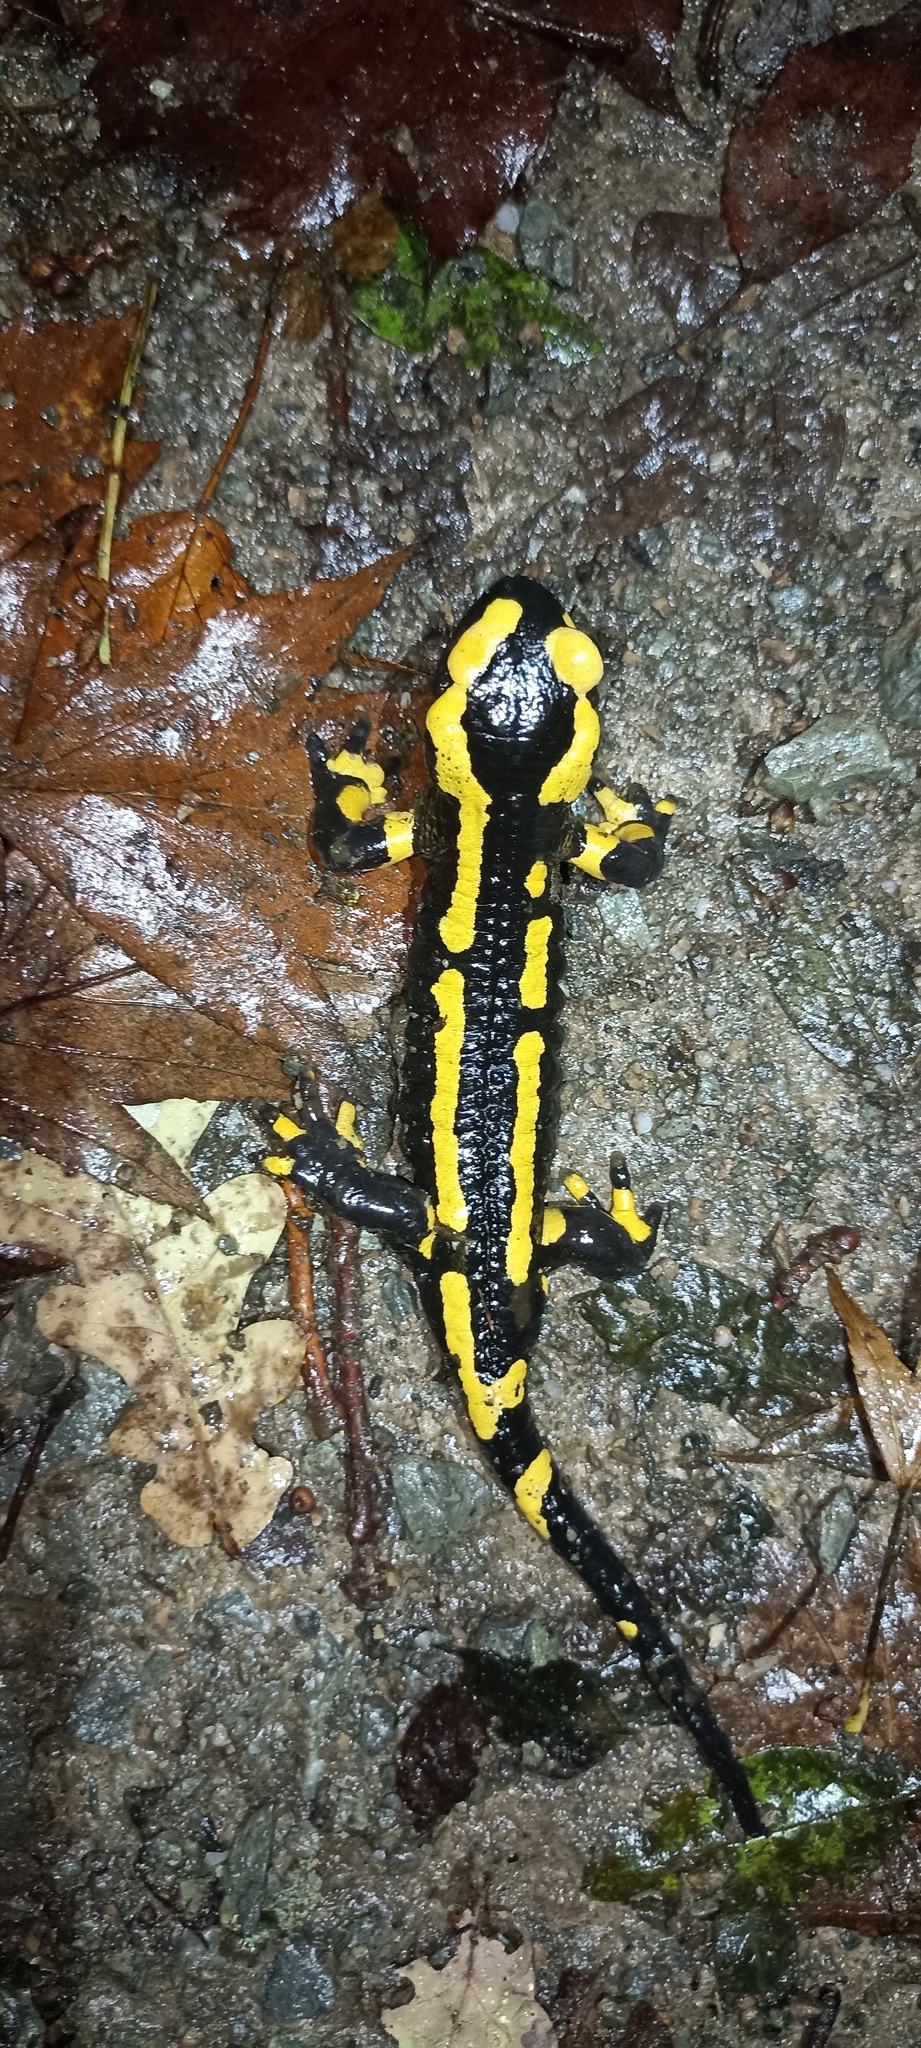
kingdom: Animalia
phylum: Chordata
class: Amphibia
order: Caudata
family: Salamandridae
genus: Salamandra
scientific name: Salamandra salamandra
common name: Fire salamander
